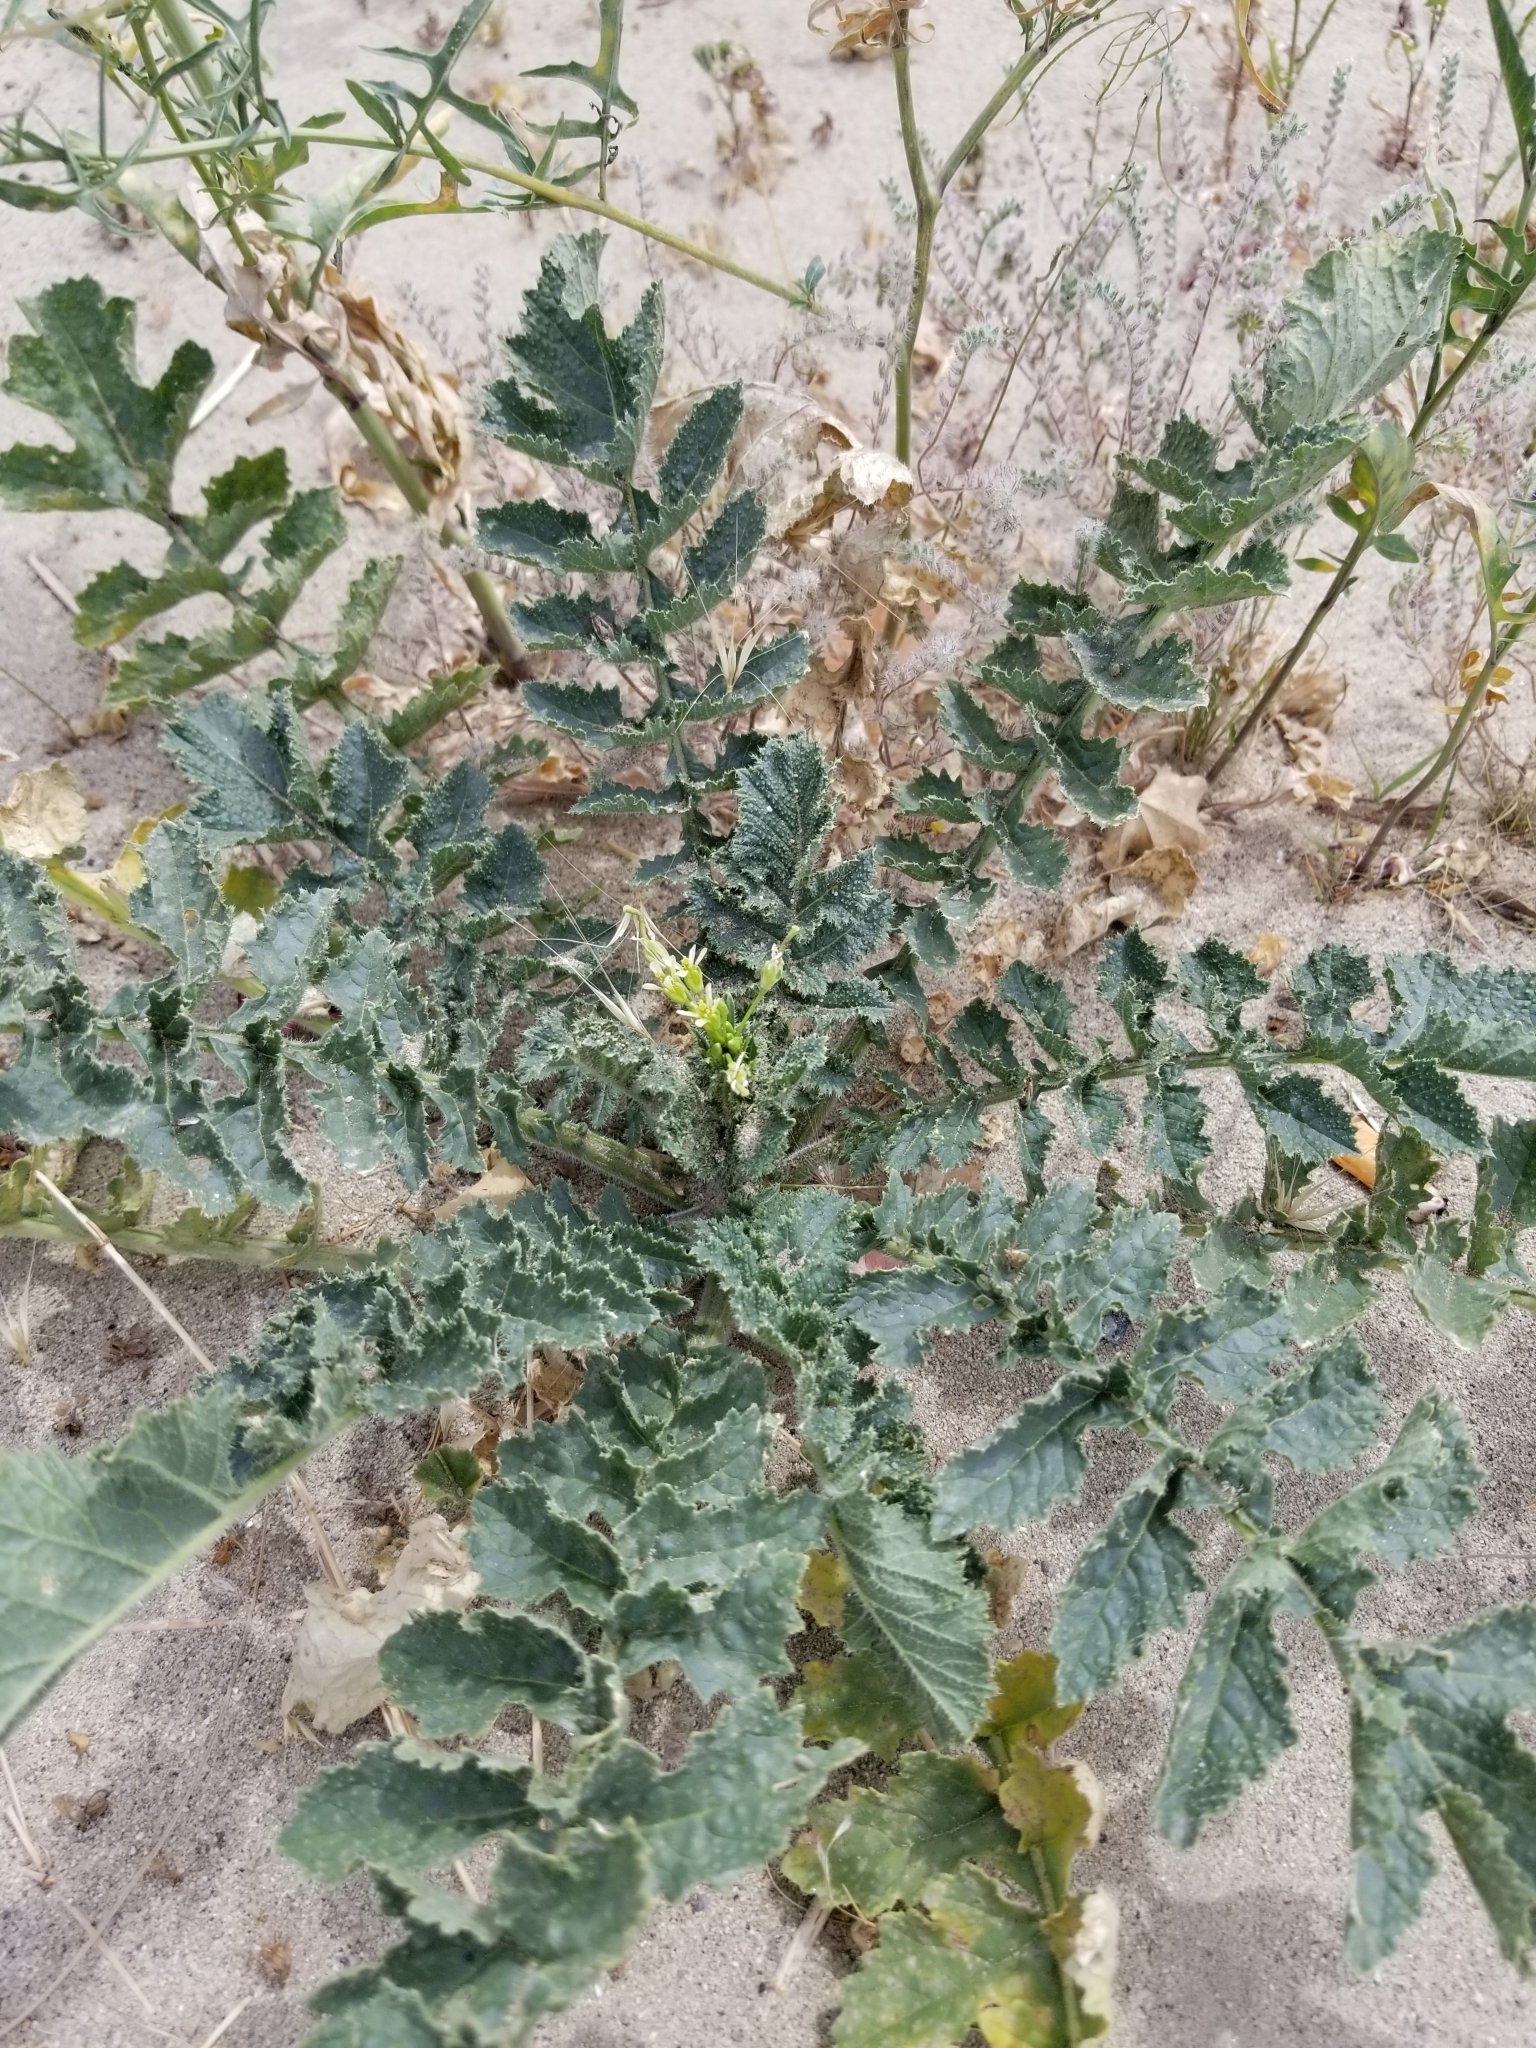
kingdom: Plantae
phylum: Tracheophyta
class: Magnoliopsida
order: Brassicales
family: Brassicaceae
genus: Brassica
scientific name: Brassica tournefortii
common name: Pale cabbage
